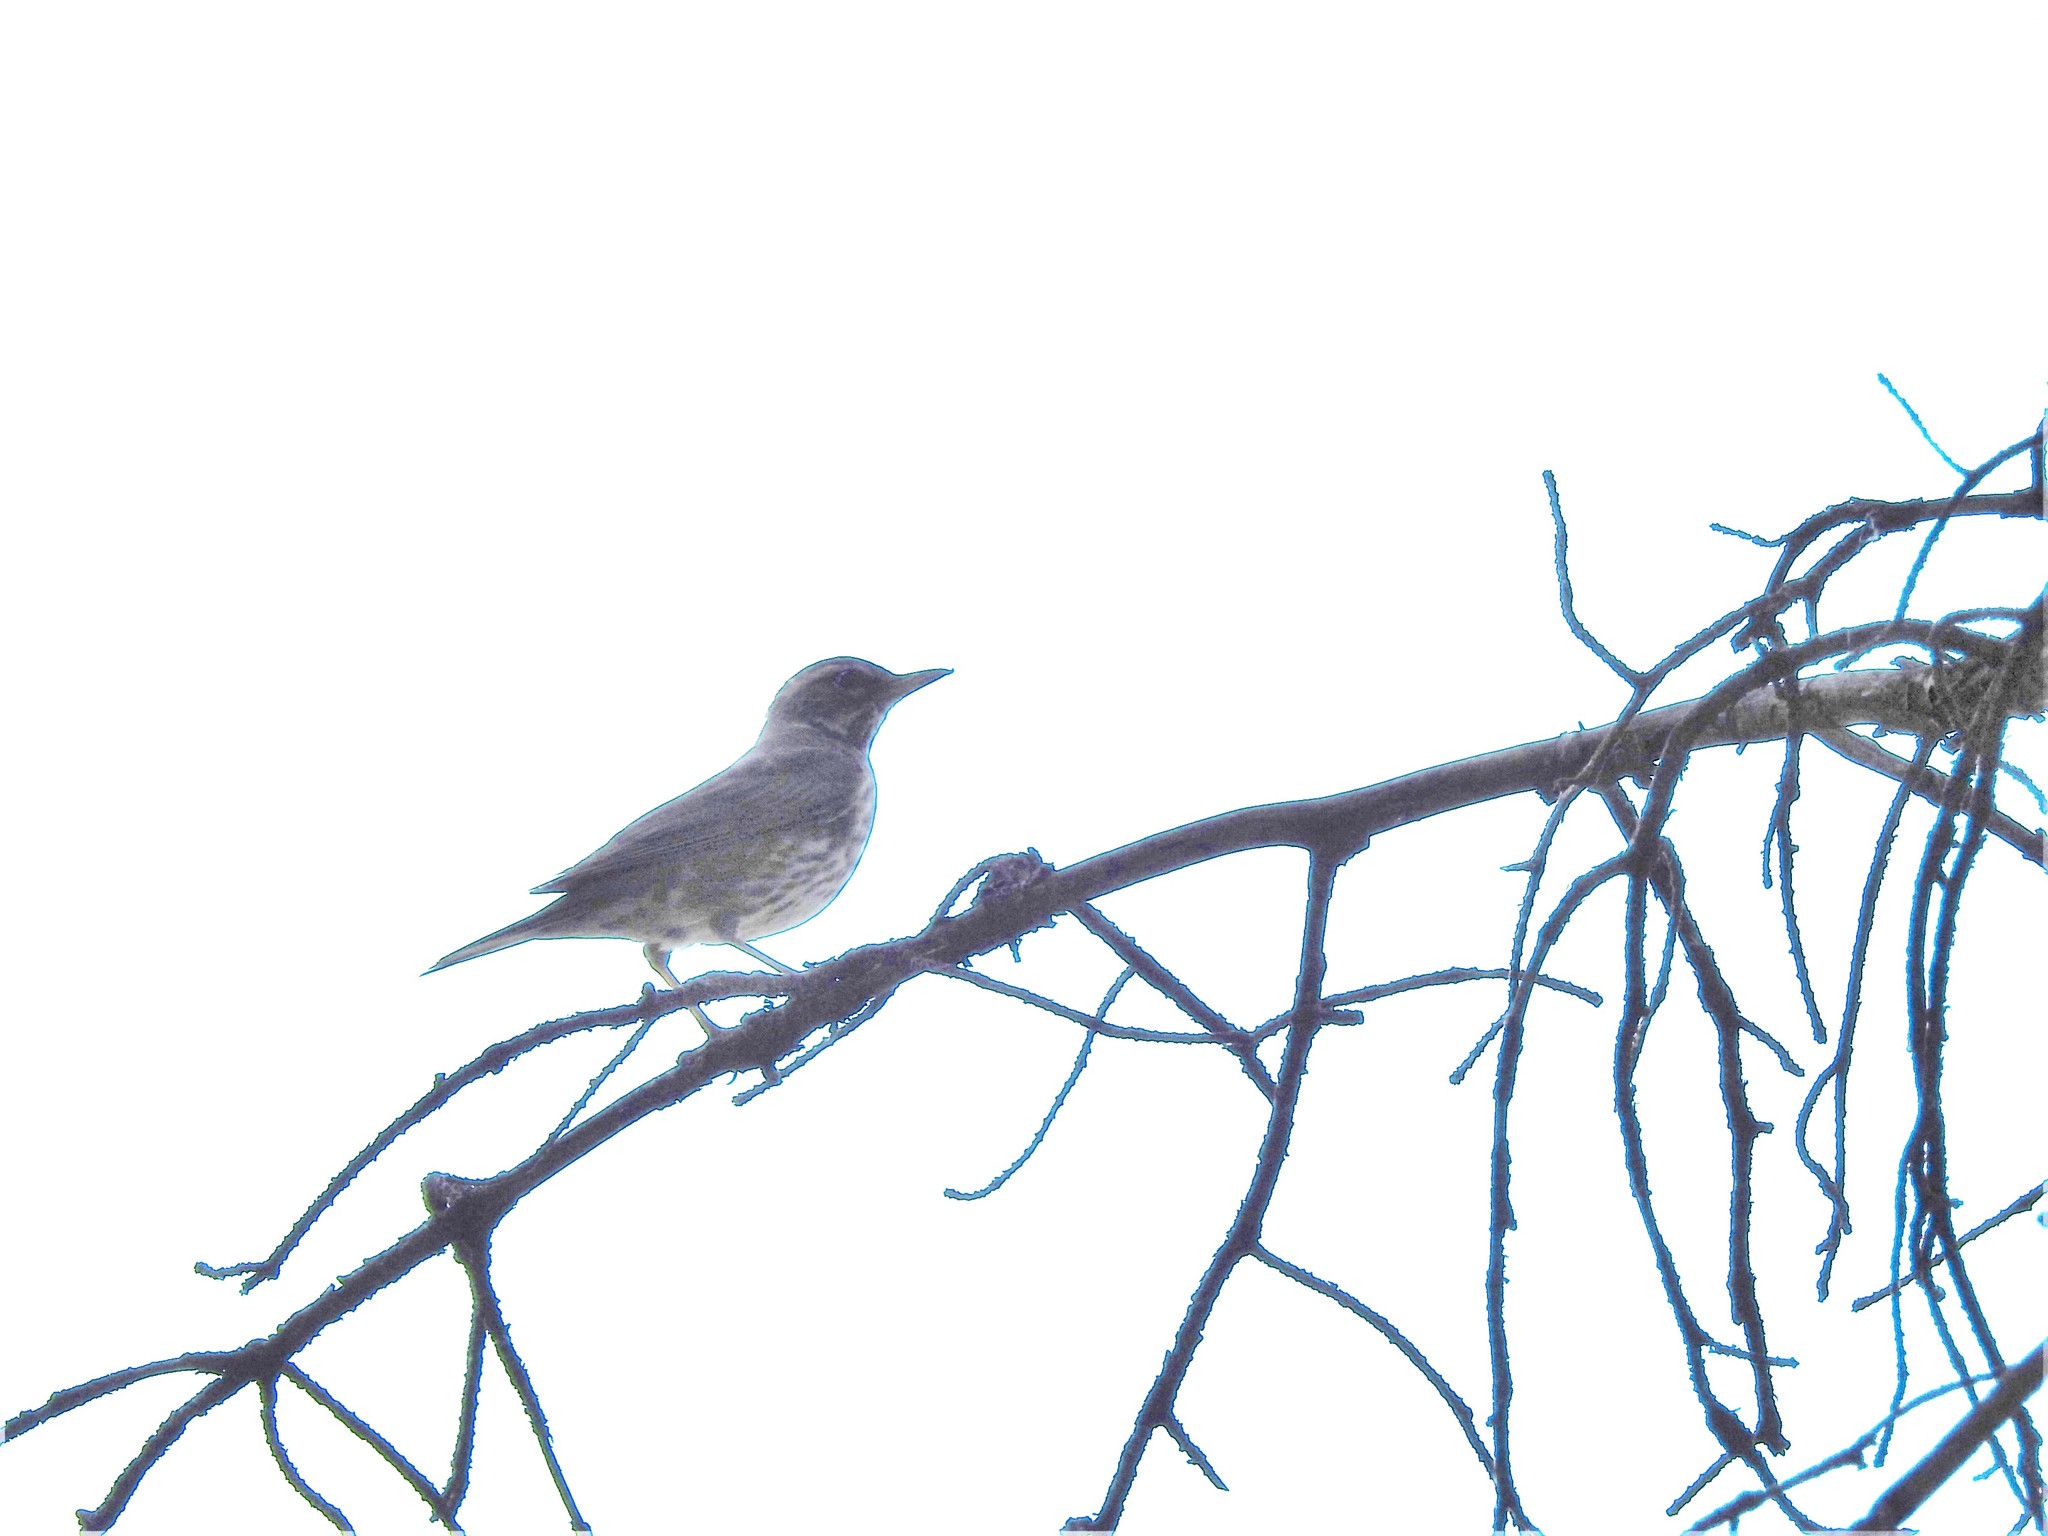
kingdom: Animalia
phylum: Chordata
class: Aves
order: Passeriformes
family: Turdidae
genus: Turdus
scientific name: Turdus iliacus
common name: Redwing
